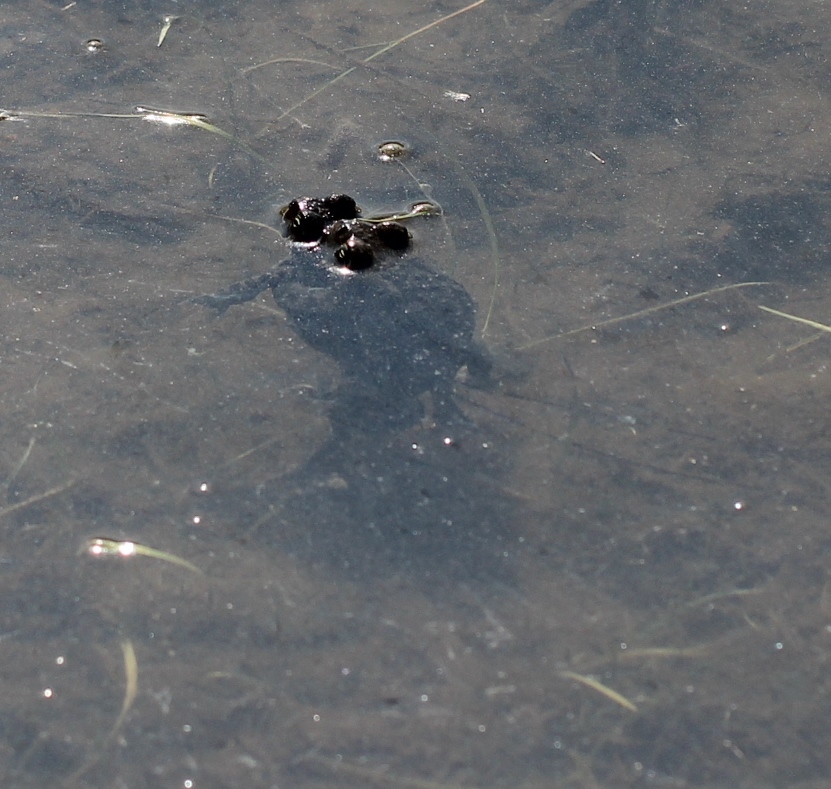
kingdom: Animalia
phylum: Chordata
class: Amphibia
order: Anura
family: Bufonidae
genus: Bufotes
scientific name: Bufotes viridis
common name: European green toad
